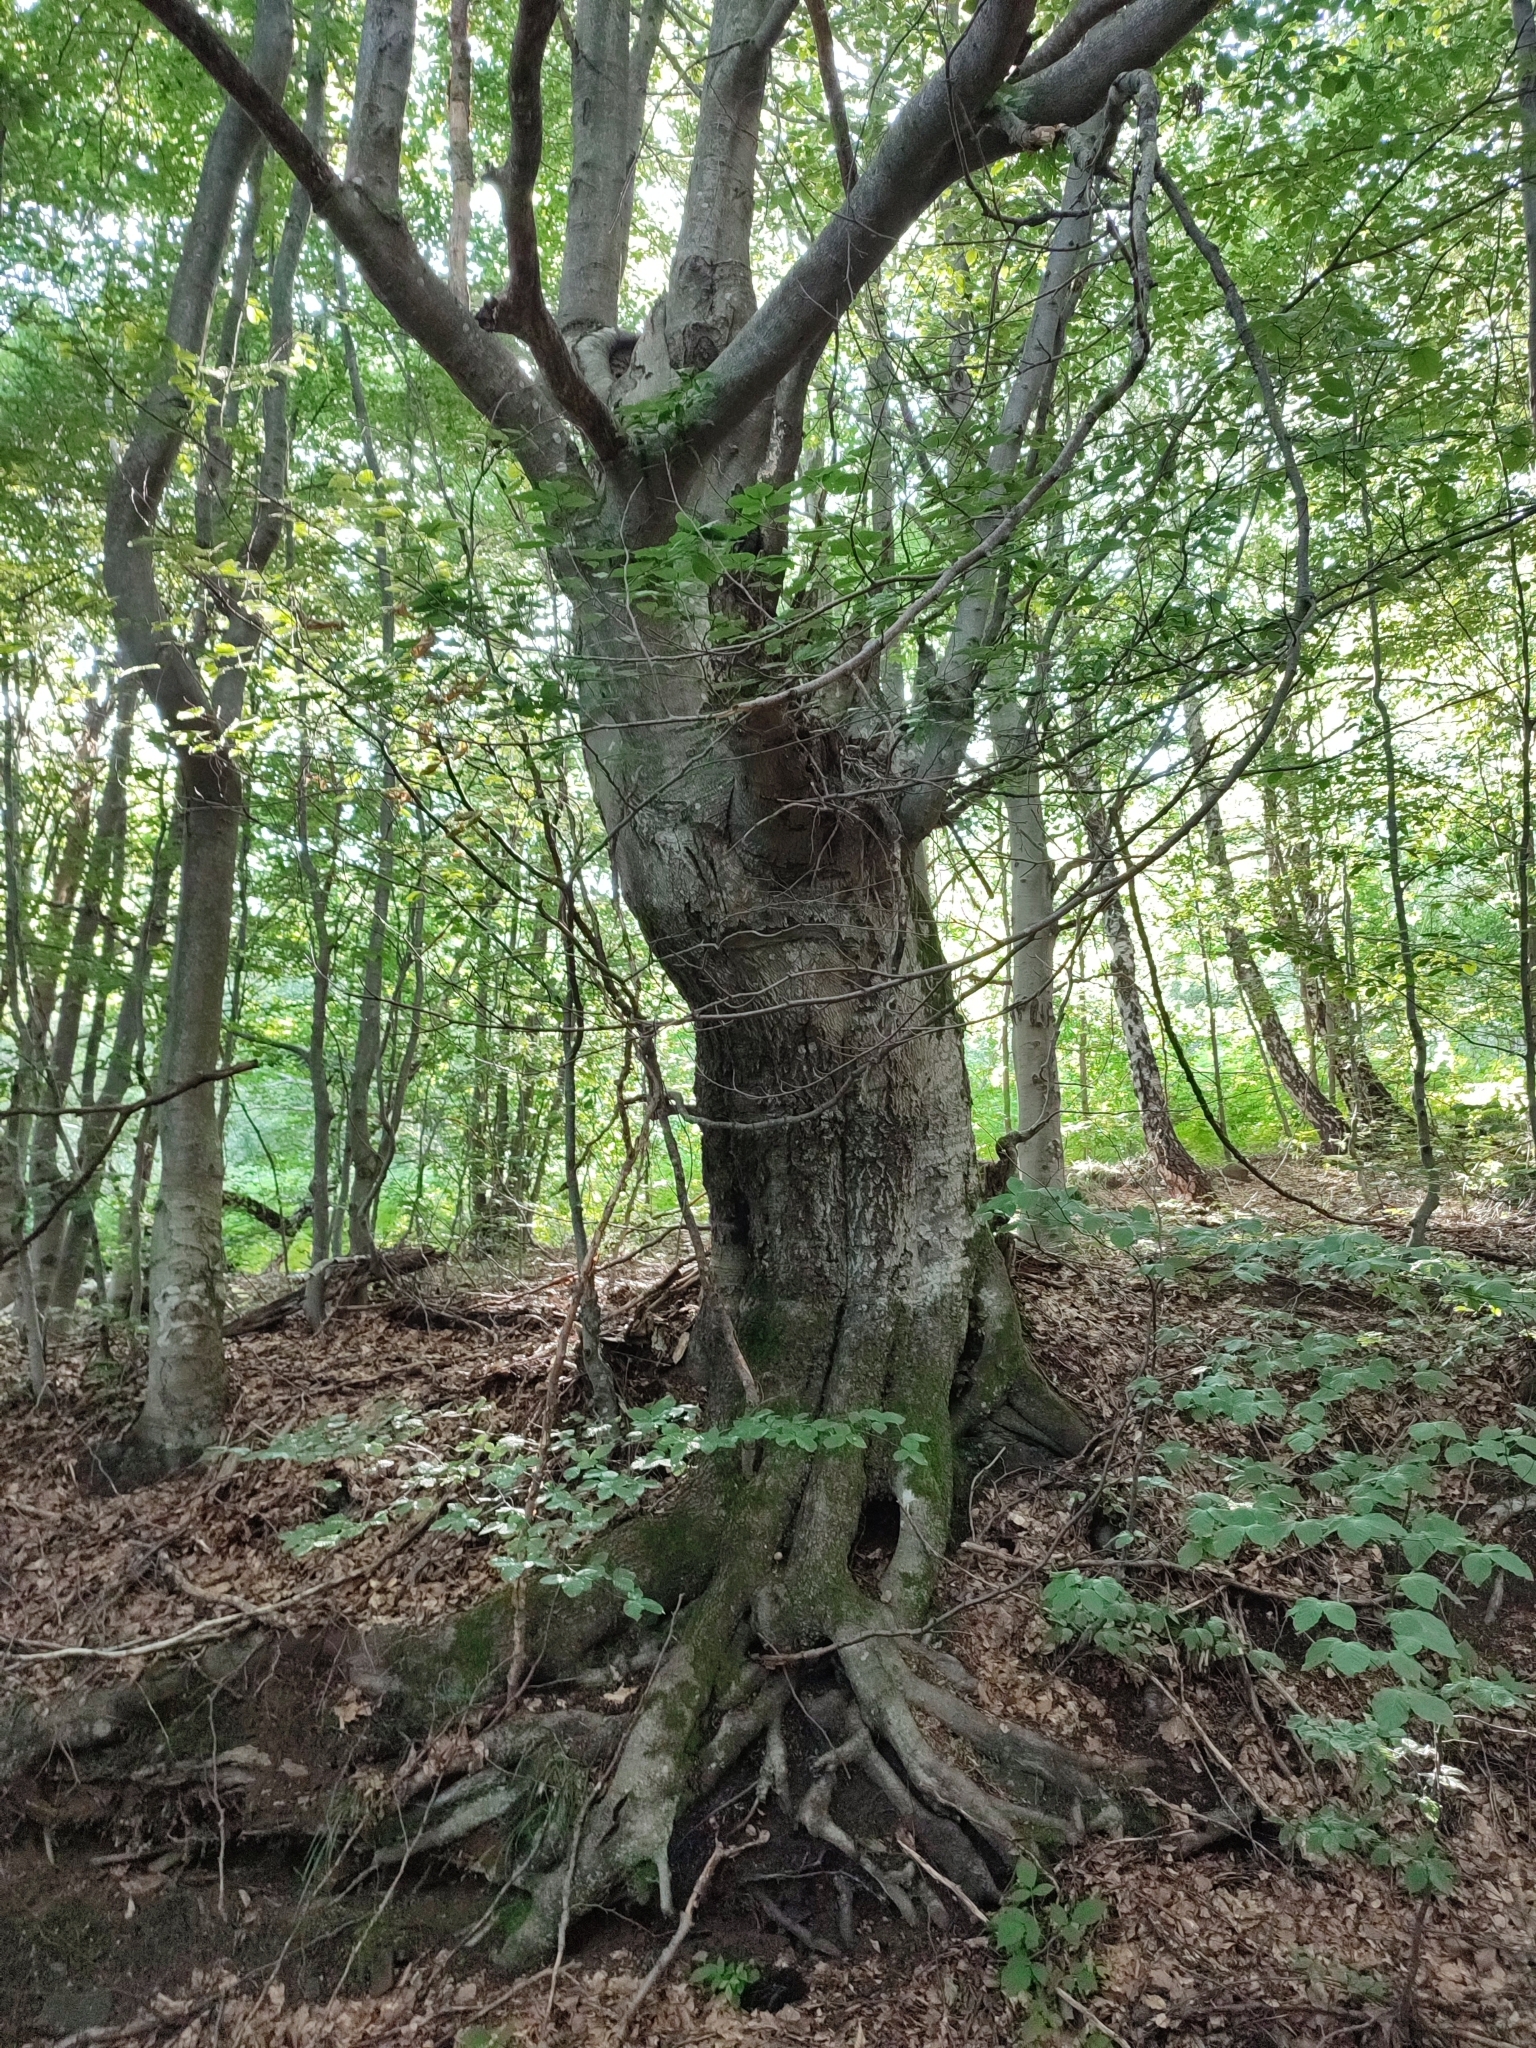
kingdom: Plantae
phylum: Tracheophyta
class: Magnoliopsida
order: Fagales
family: Fagaceae
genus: Fagus
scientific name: Fagus sylvatica
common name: Beech
